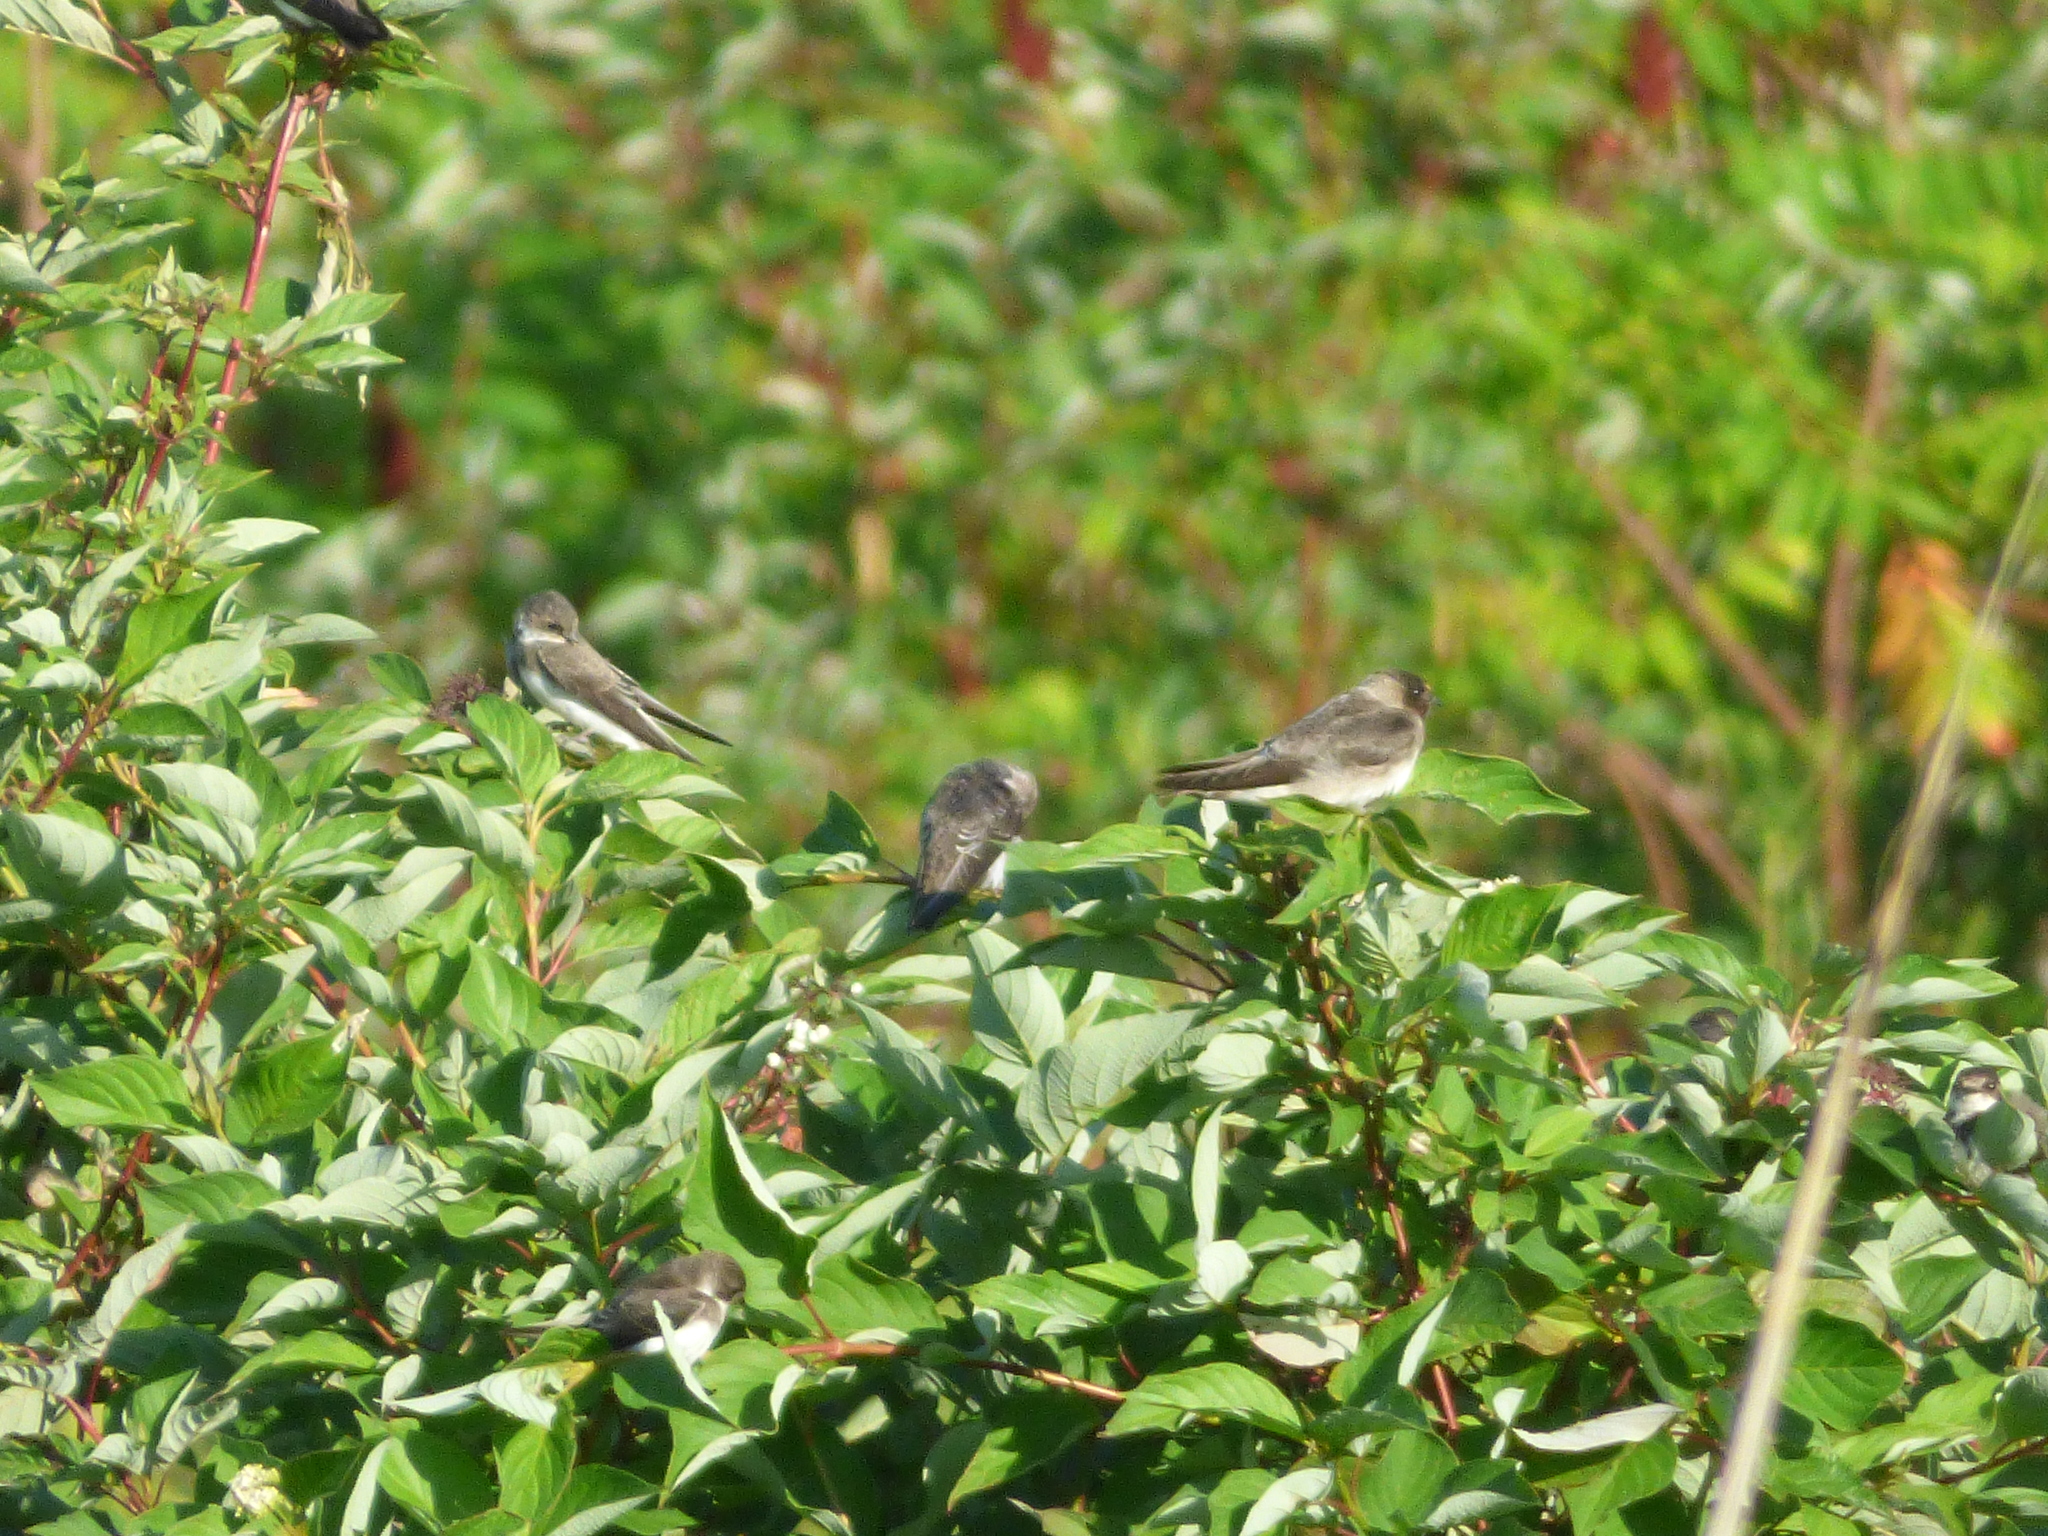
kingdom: Animalia
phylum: Chordata
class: Aves
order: Passeriformes
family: Hirundinidae
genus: Riparia
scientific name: Riparia riparia
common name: Sand martin
